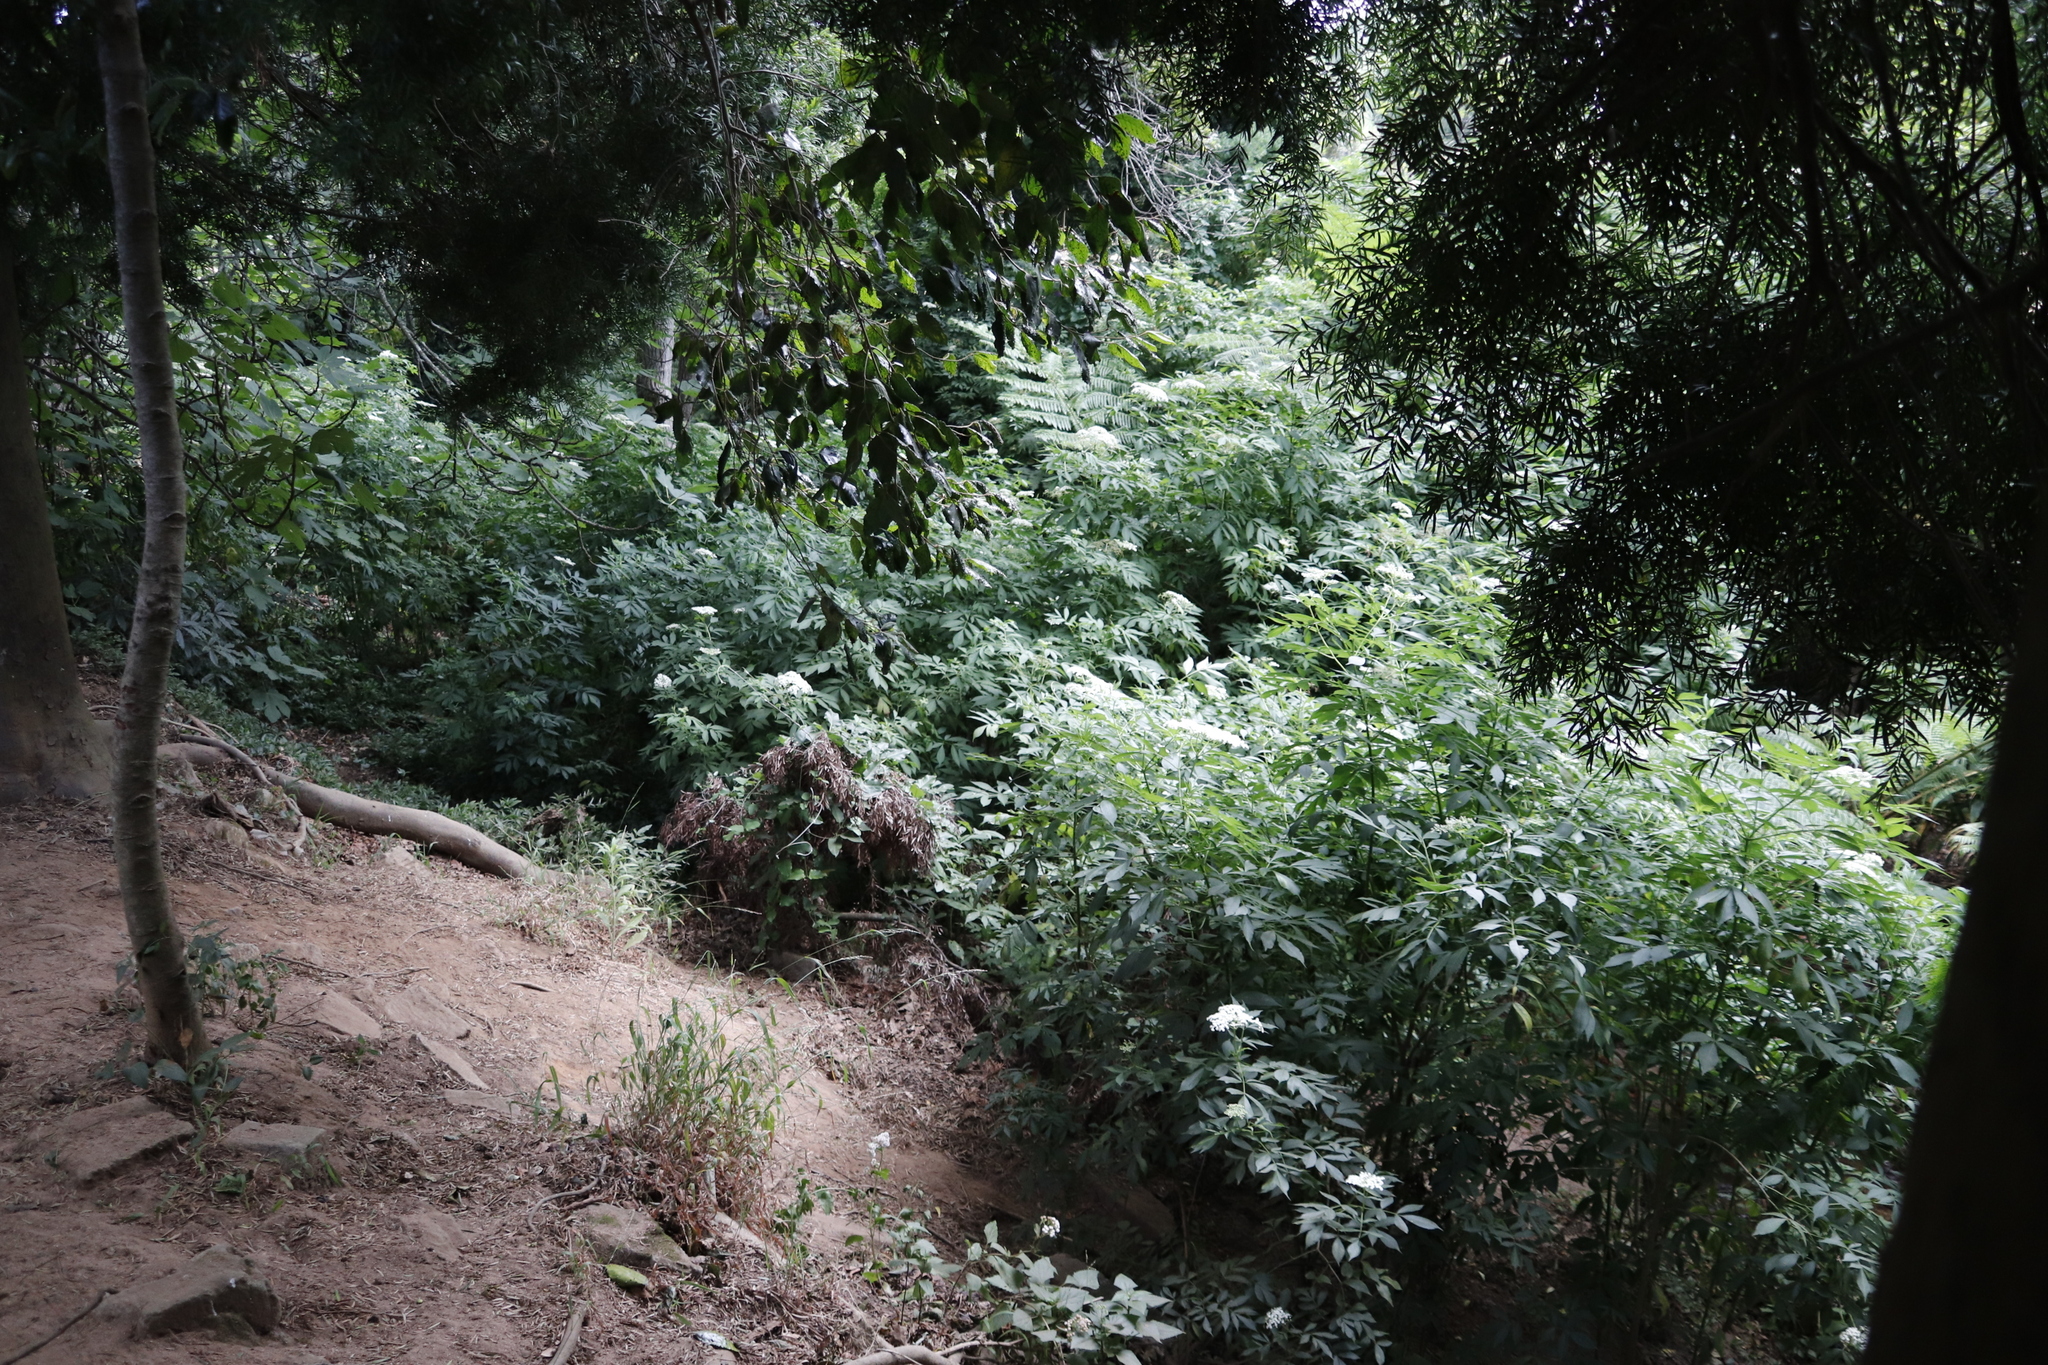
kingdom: Plantae
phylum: Tracheophyta
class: Magnoliopsida
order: Dipsacales
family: Viburnaceae
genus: Sambucus
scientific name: Sambucus nigra
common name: Elder
